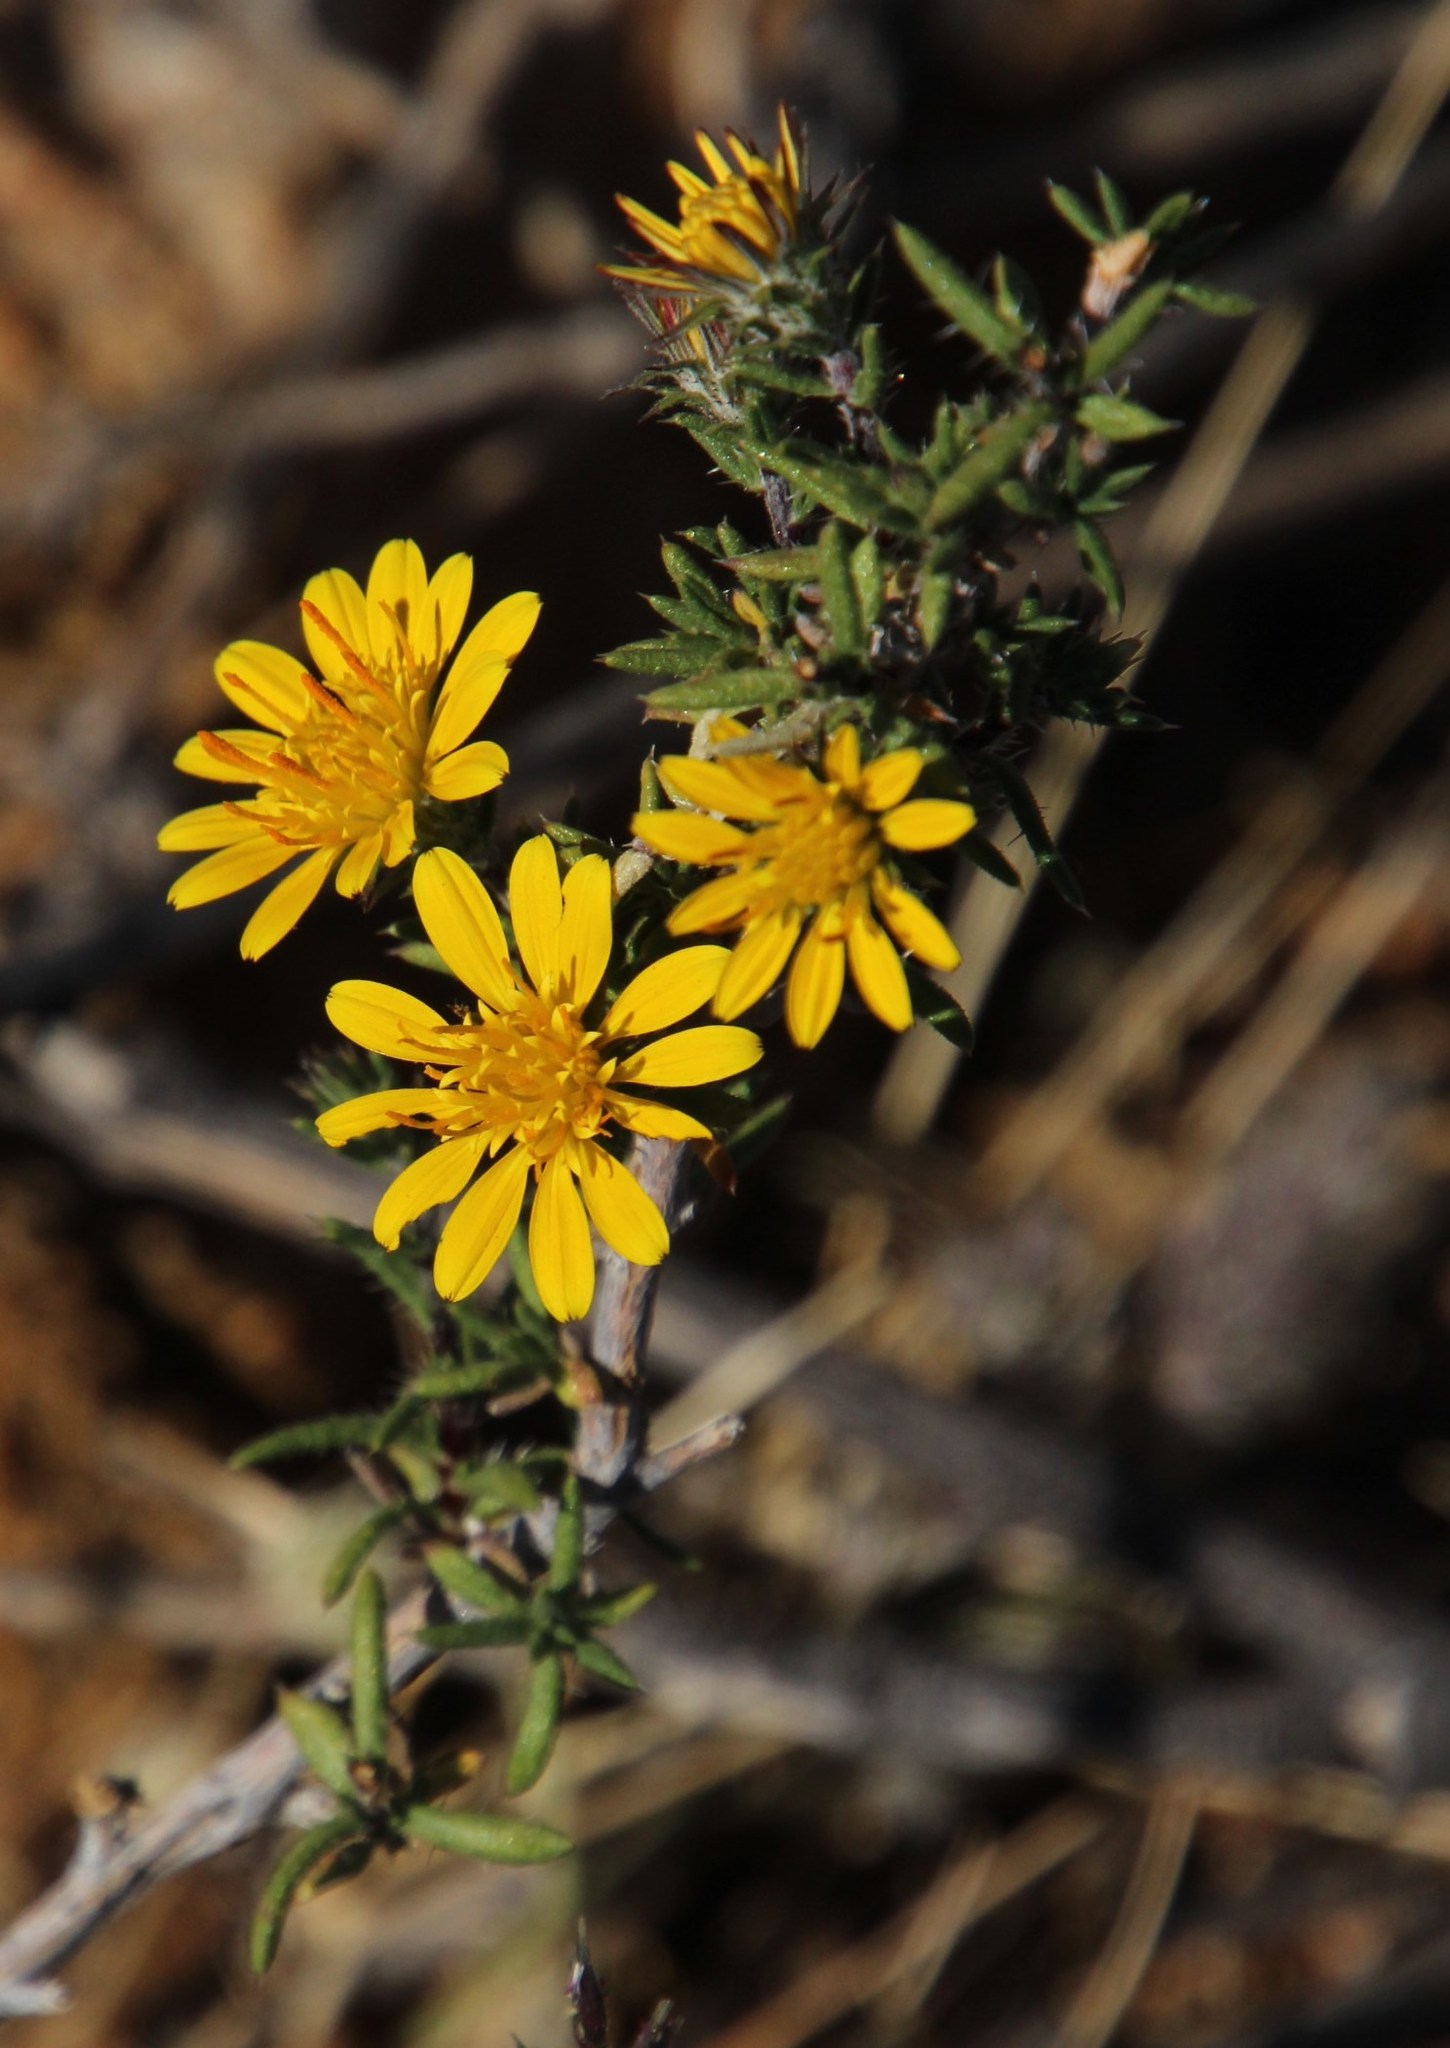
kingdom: Plantae
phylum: Tracheophyta
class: Magnoliopsida
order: Asterales
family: Asteraceae
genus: Gorteria
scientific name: Gorteria alienata
